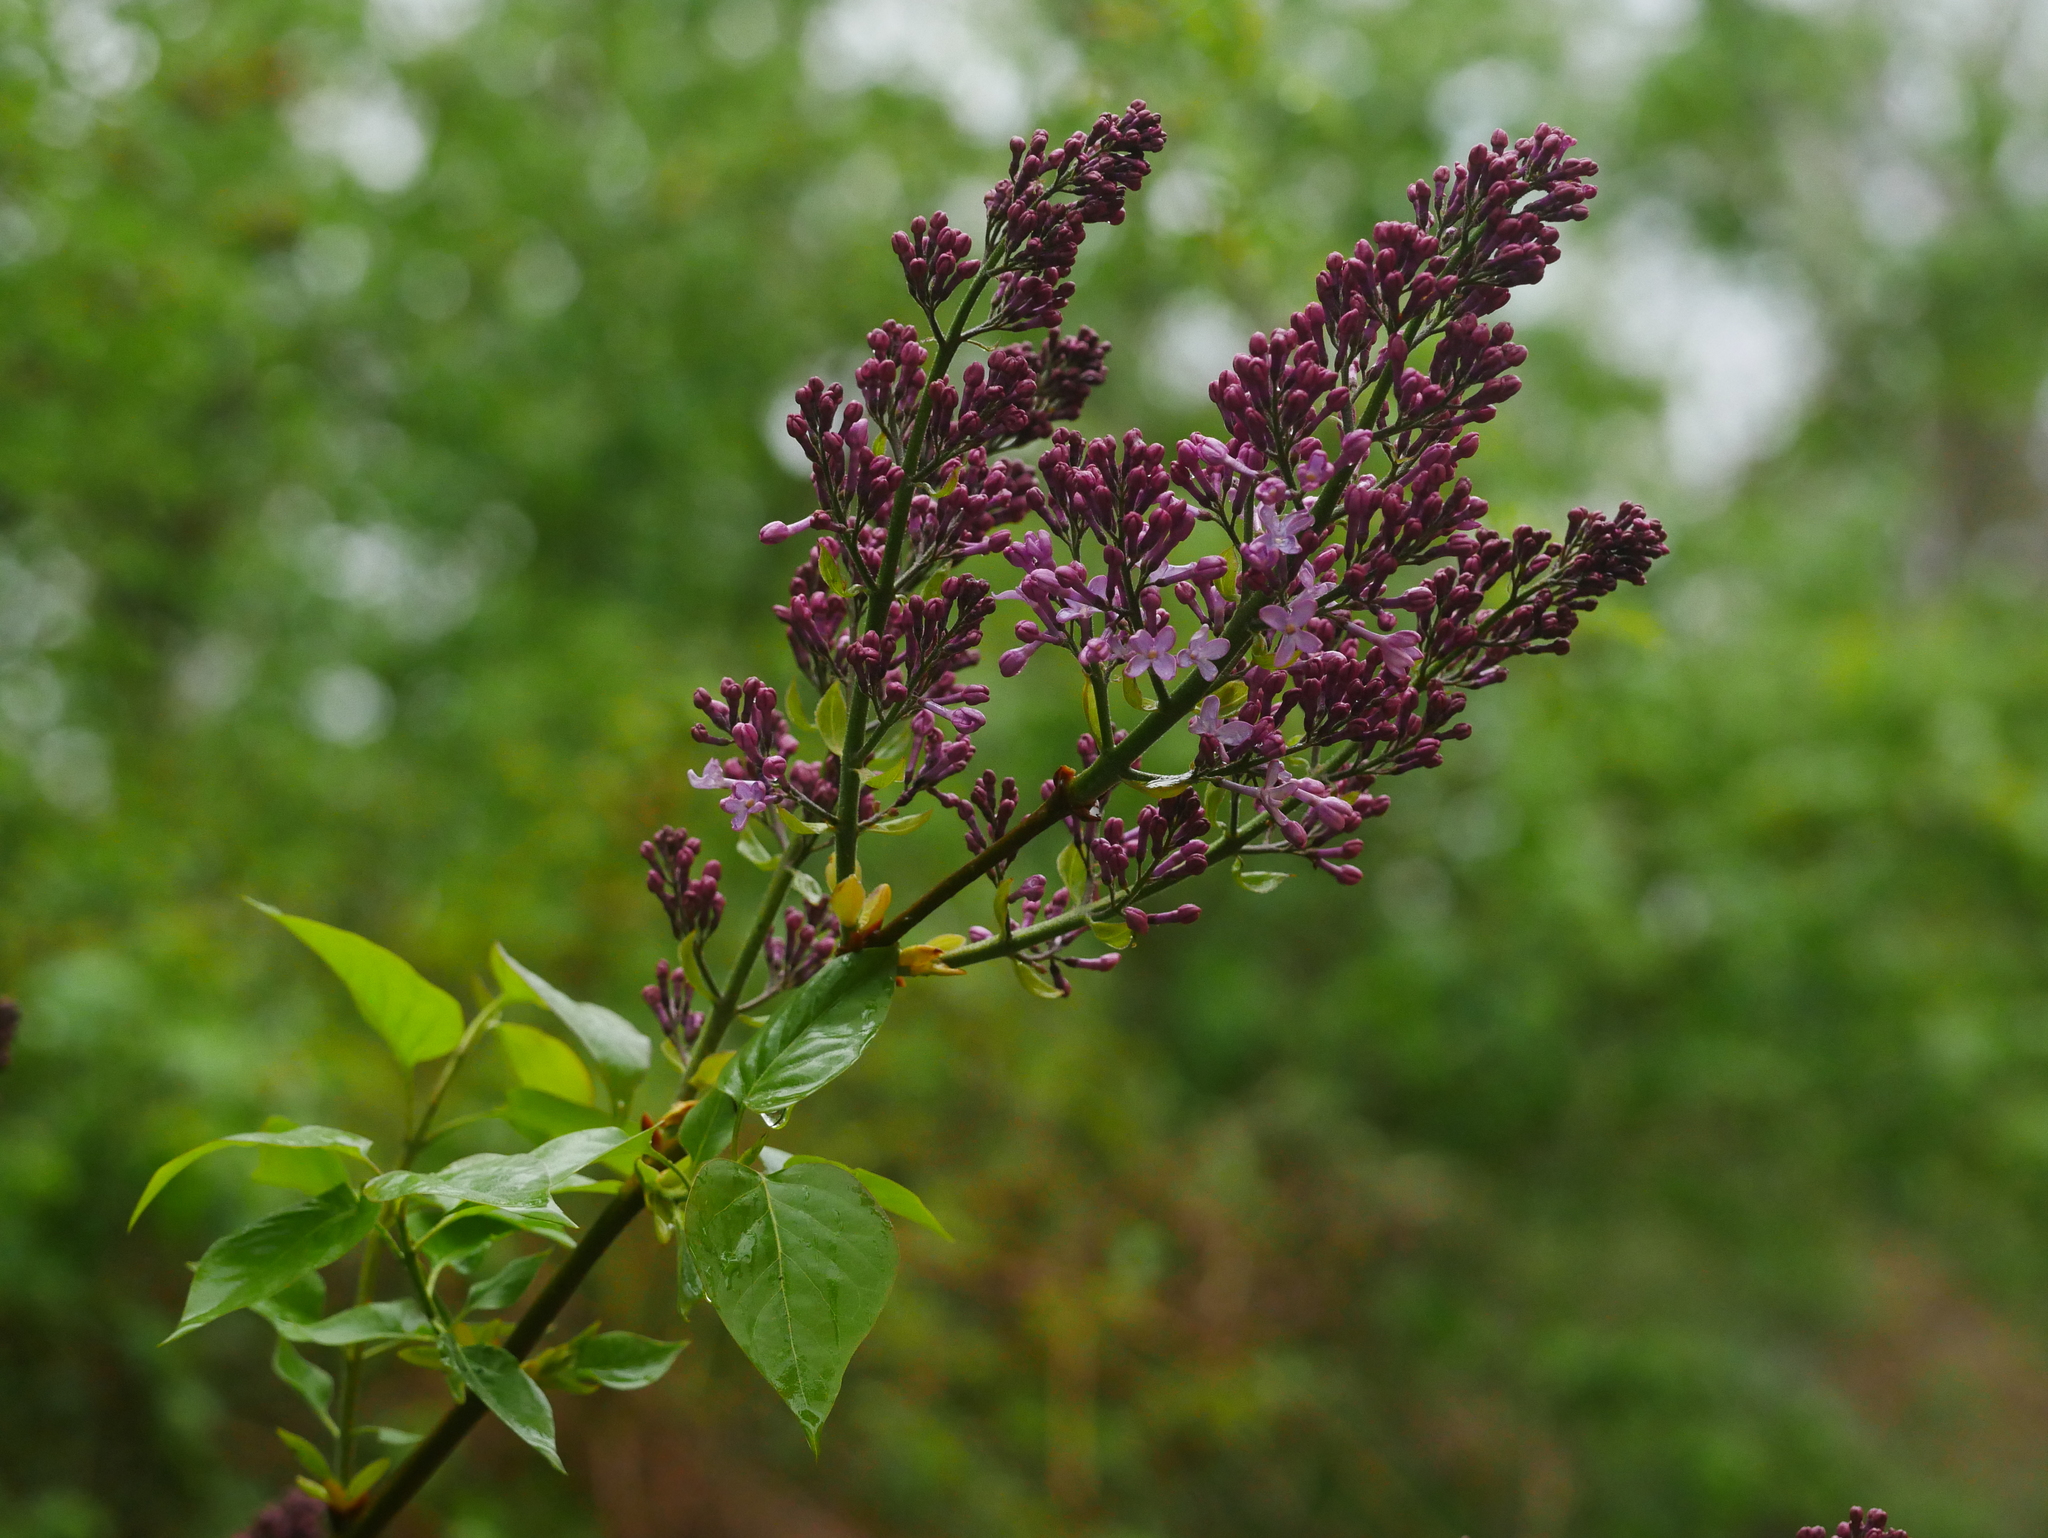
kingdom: Plantae
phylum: Tracheophyta
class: Magnoliopsida
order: Lamiales
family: Oleaceae
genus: Syringa
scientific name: Syringa vulgaris
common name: Common lilac
